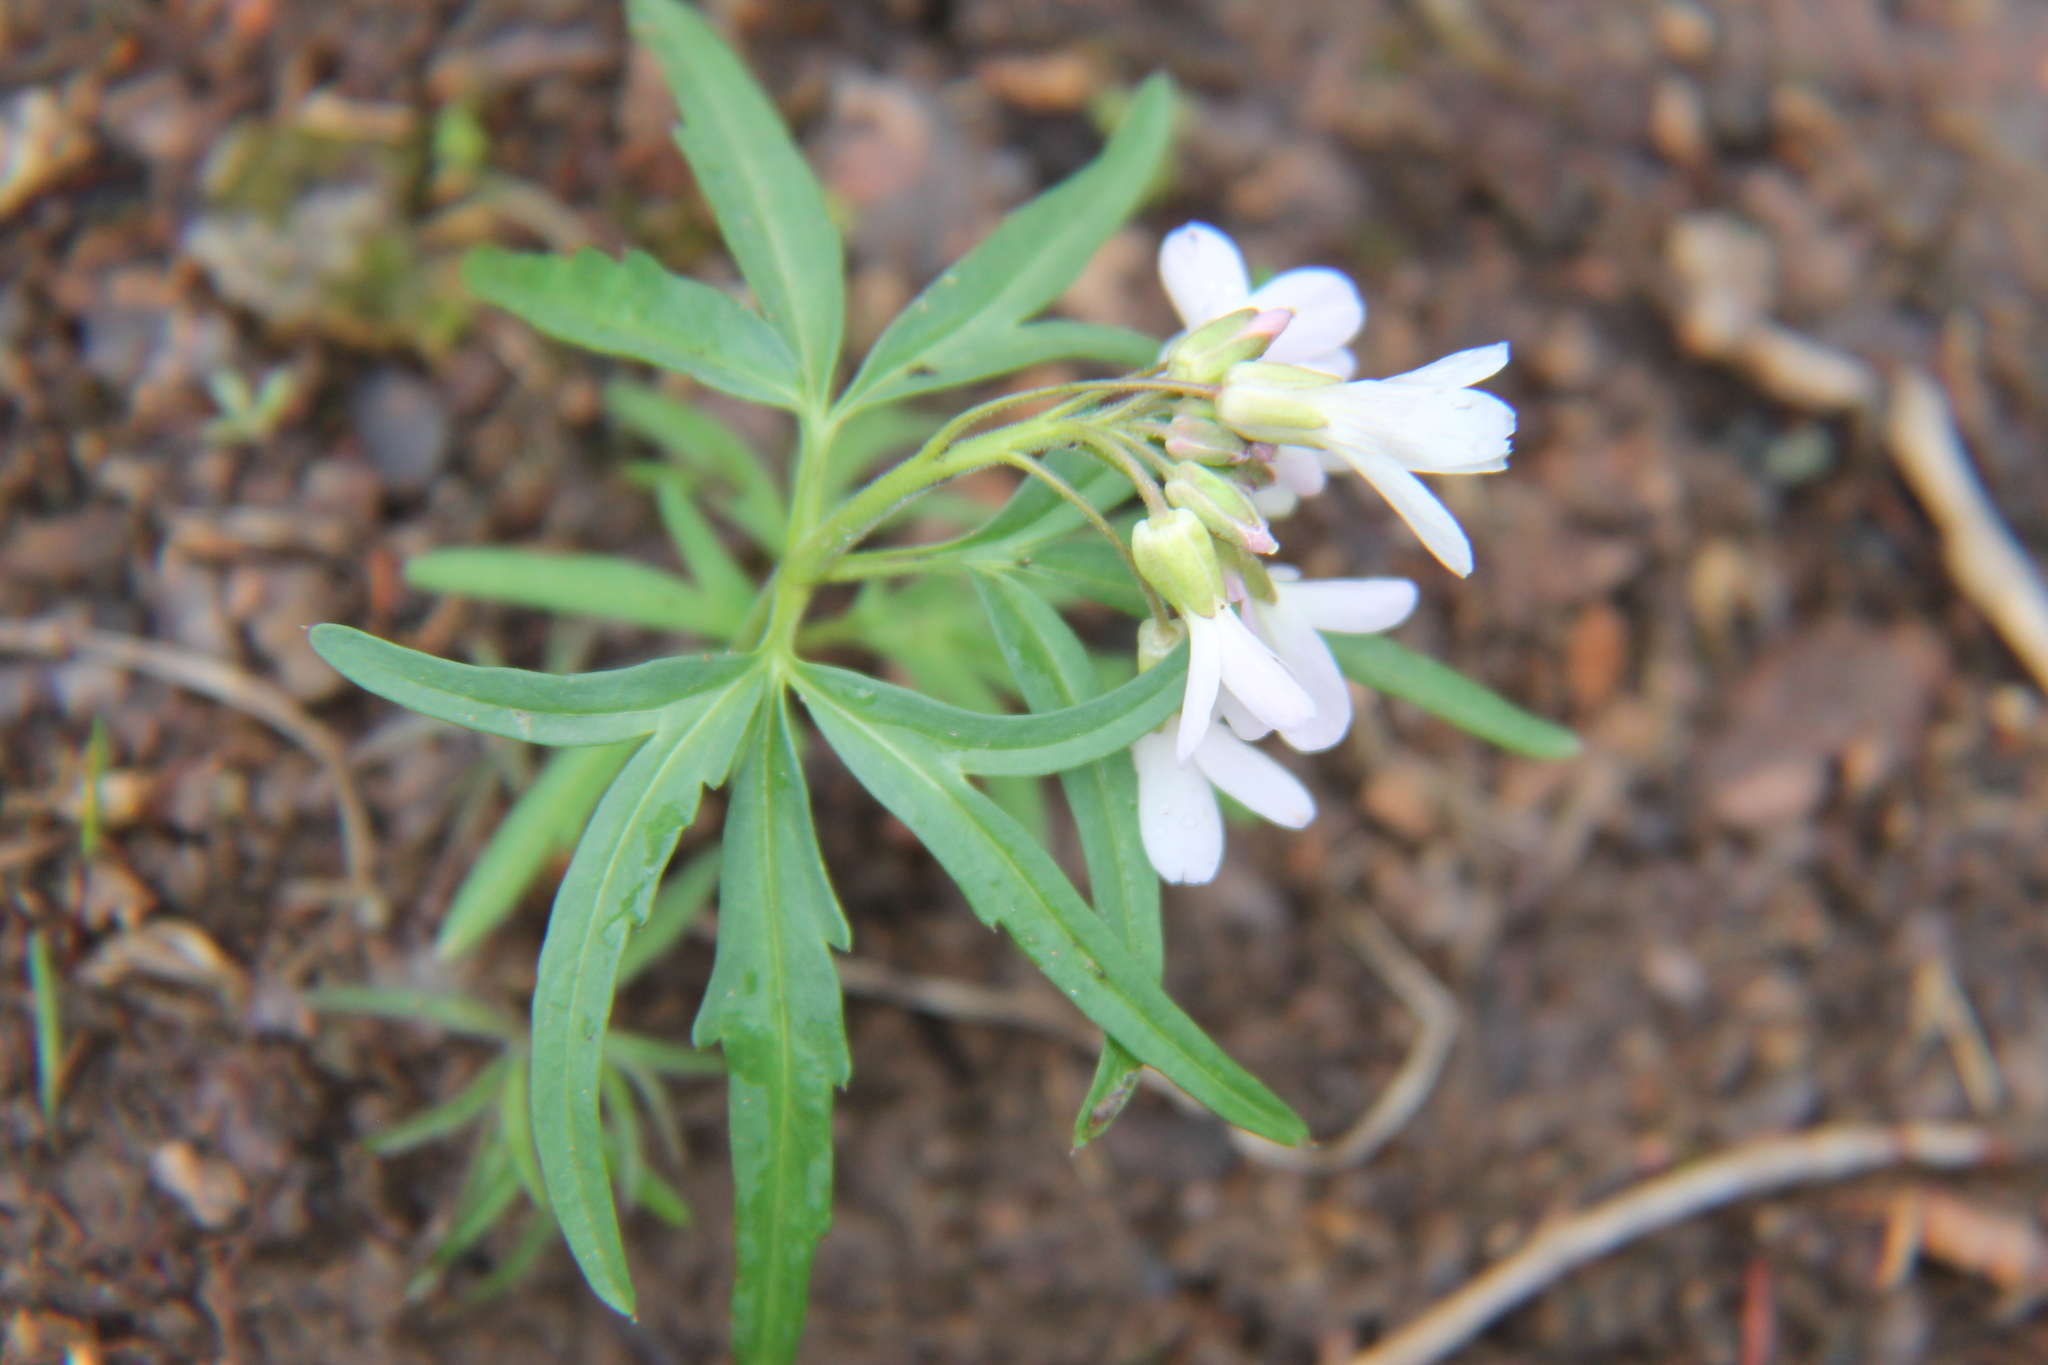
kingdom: Plantae
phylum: Tracheophyta
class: Magnoliopsida
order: Brassicales
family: Brassicaceae
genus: Cardamine
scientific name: Cardamine concatenata
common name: Cut-leaf toothcup
